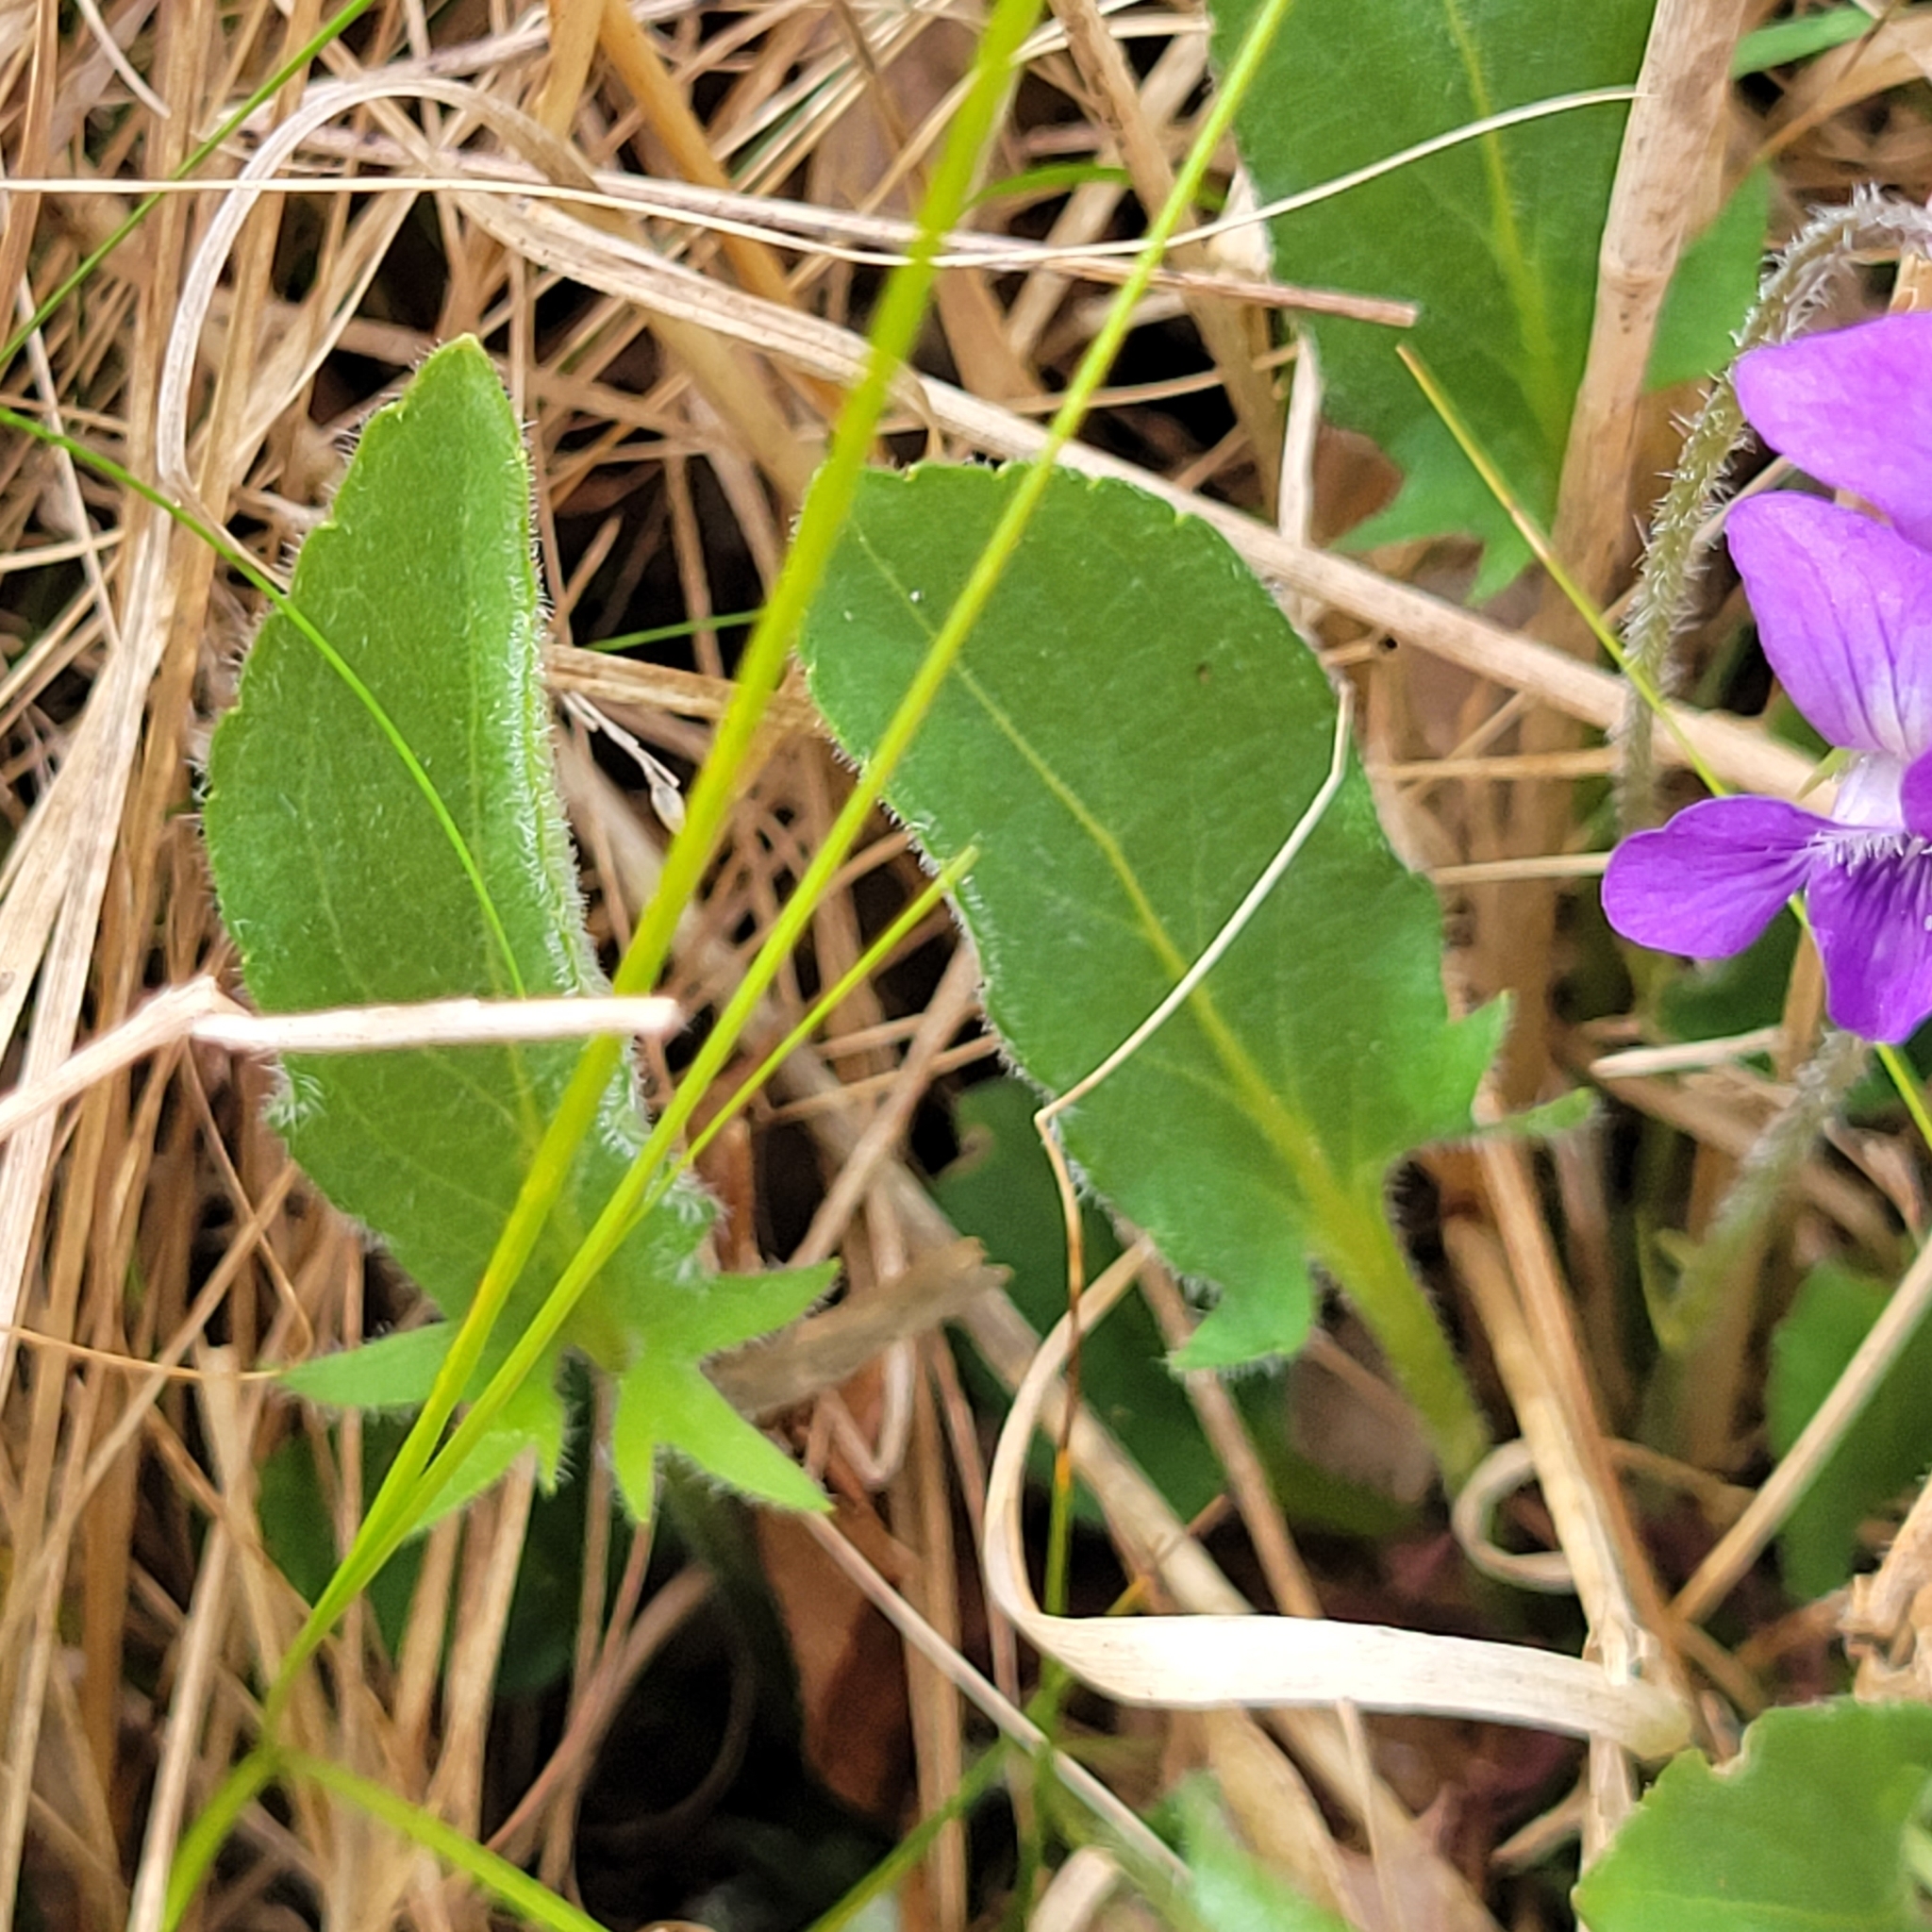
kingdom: Plantae
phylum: Tracheophyta
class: Magnoliopsida
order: Malpighiales
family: Violaceae
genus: Viola
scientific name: Viola sagittata
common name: Arrowhead violet
